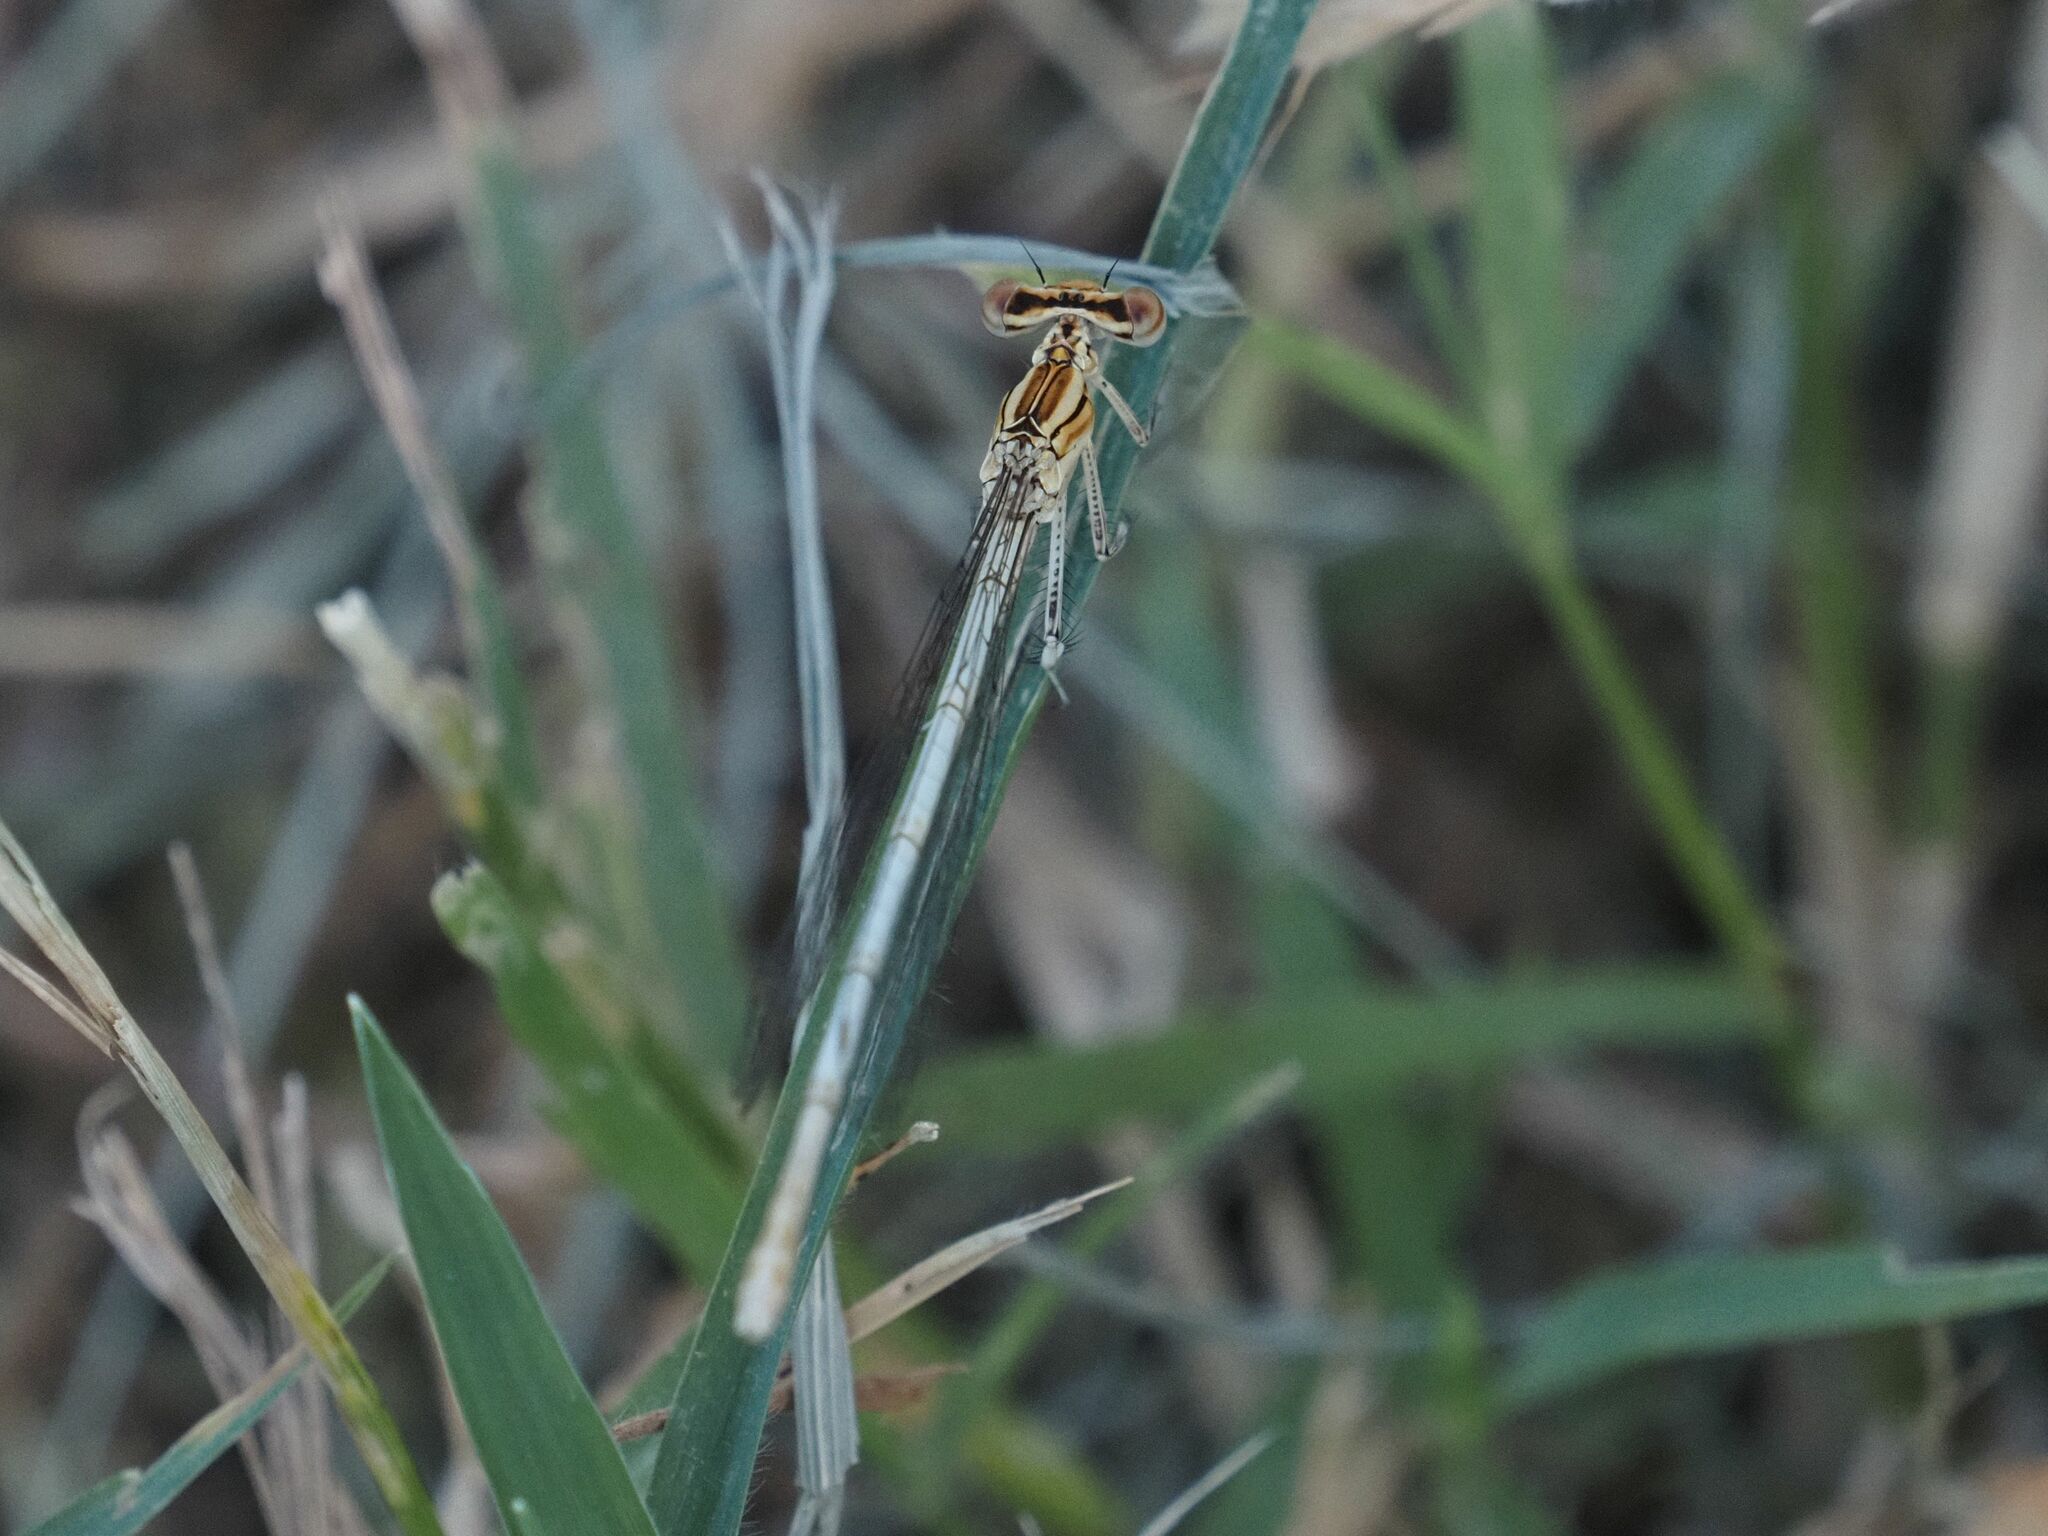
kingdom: Animalia
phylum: Arthropoda
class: Insecta
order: Odonata
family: Platycnemididae
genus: Platycnemis
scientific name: Platycnemis pennipes
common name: White-legged damselfly
